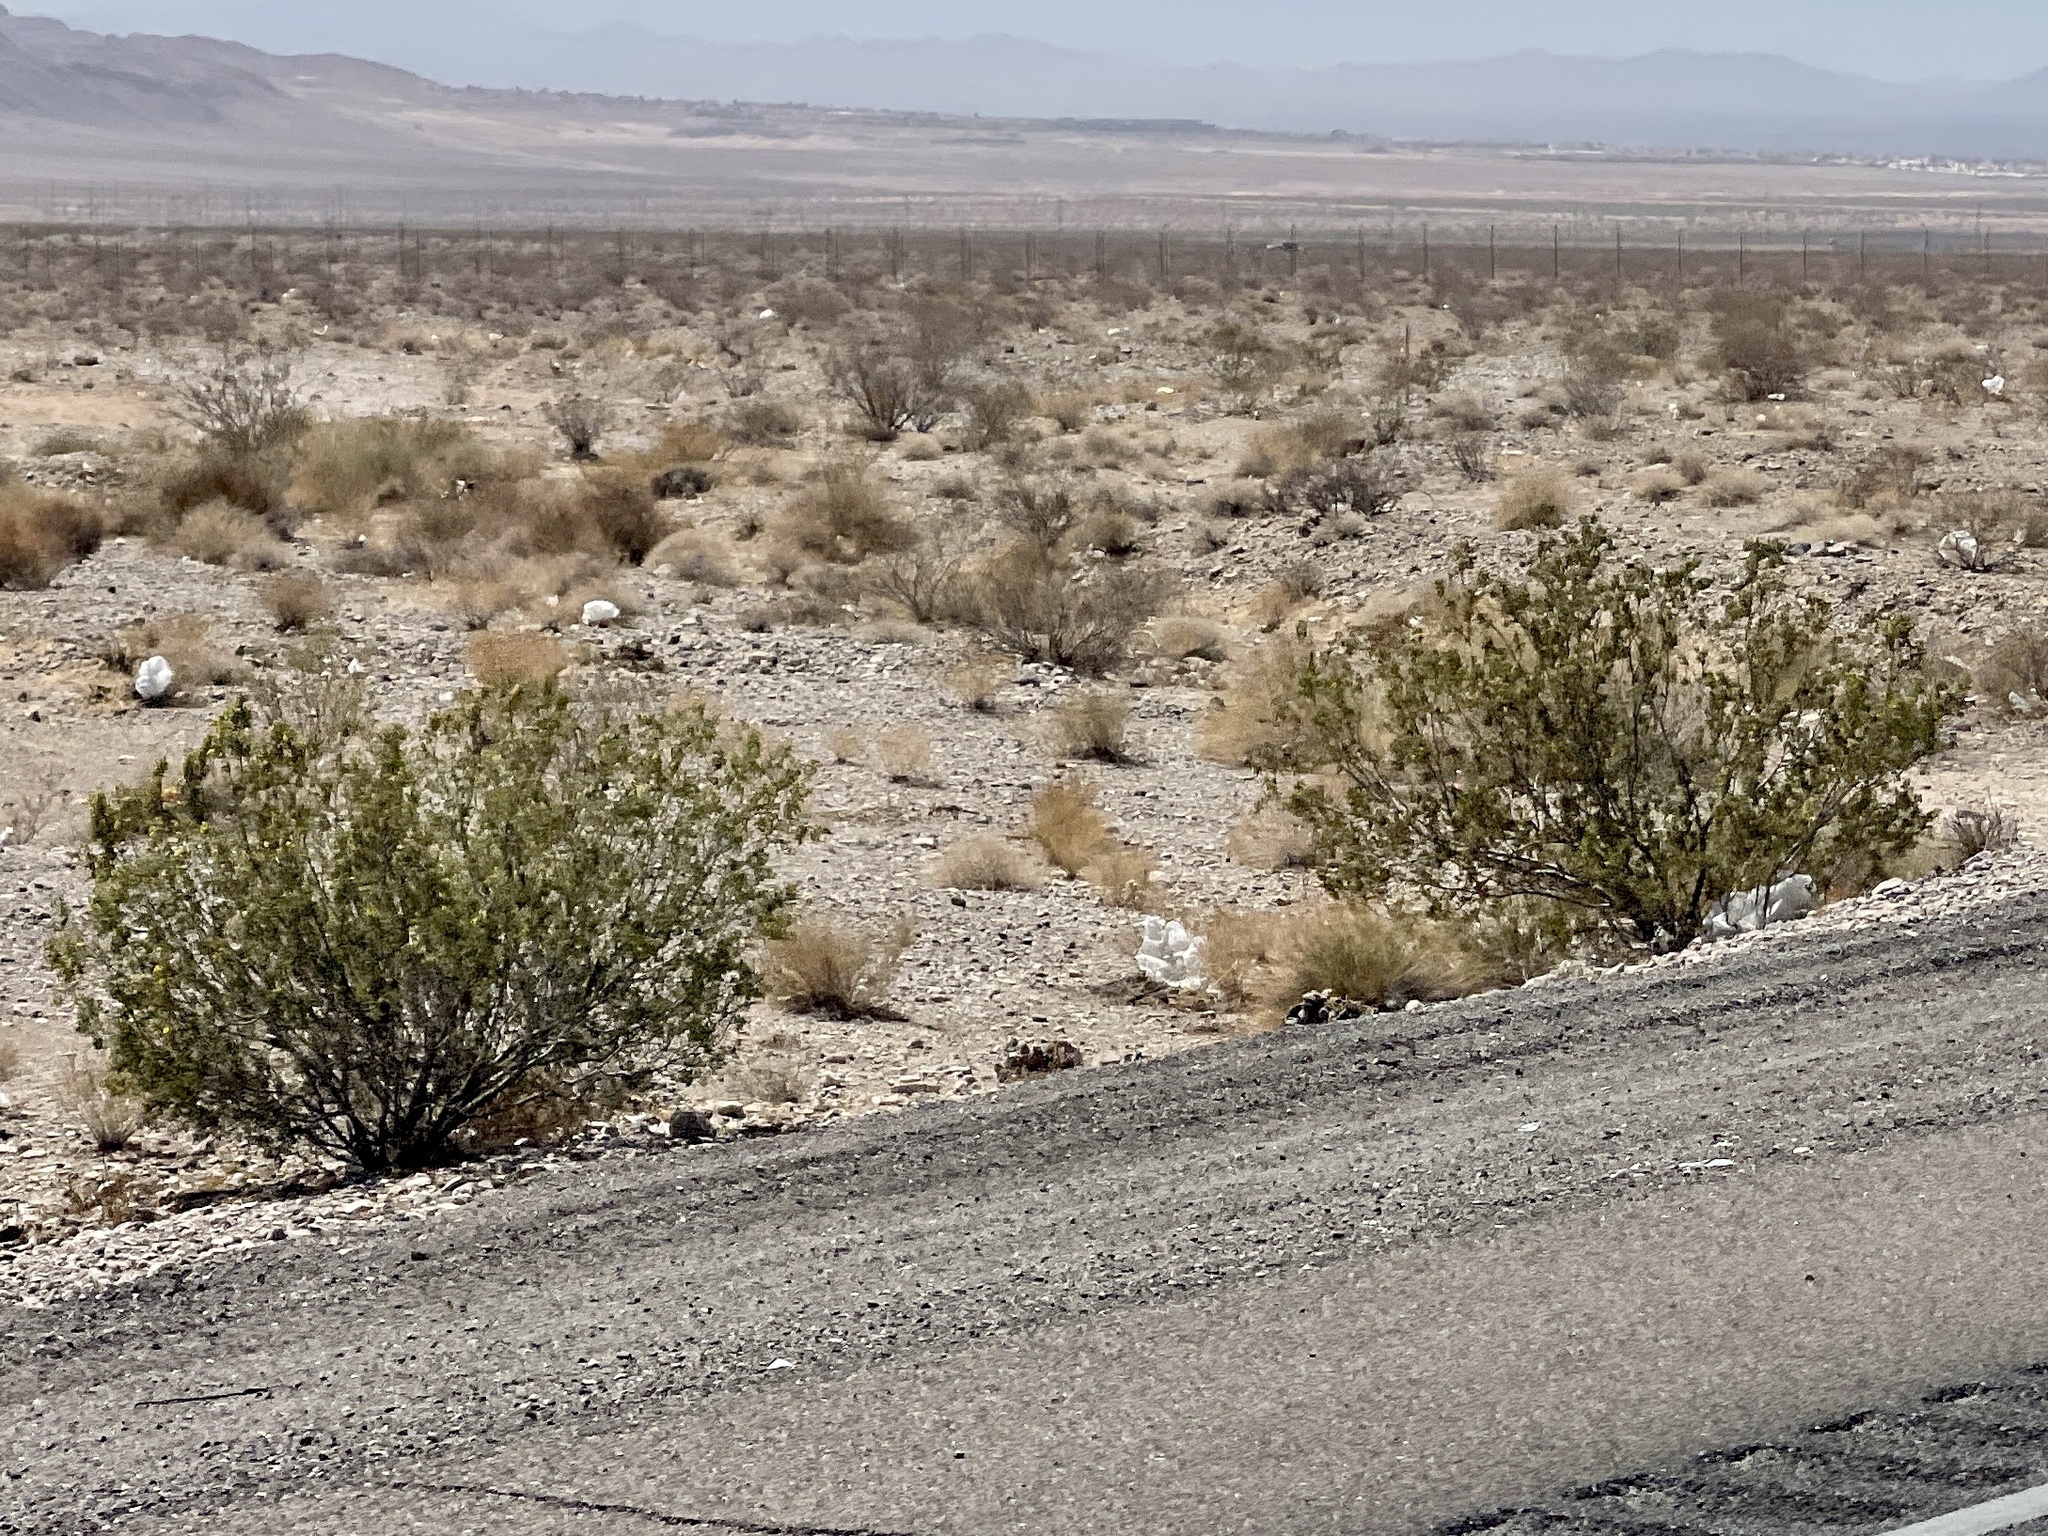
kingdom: Plantae
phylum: Tracheophyta
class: Magnoliopsida
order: Zygophyllales
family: Zygophyllaceae
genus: Larrea
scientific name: Larrea tridentata
